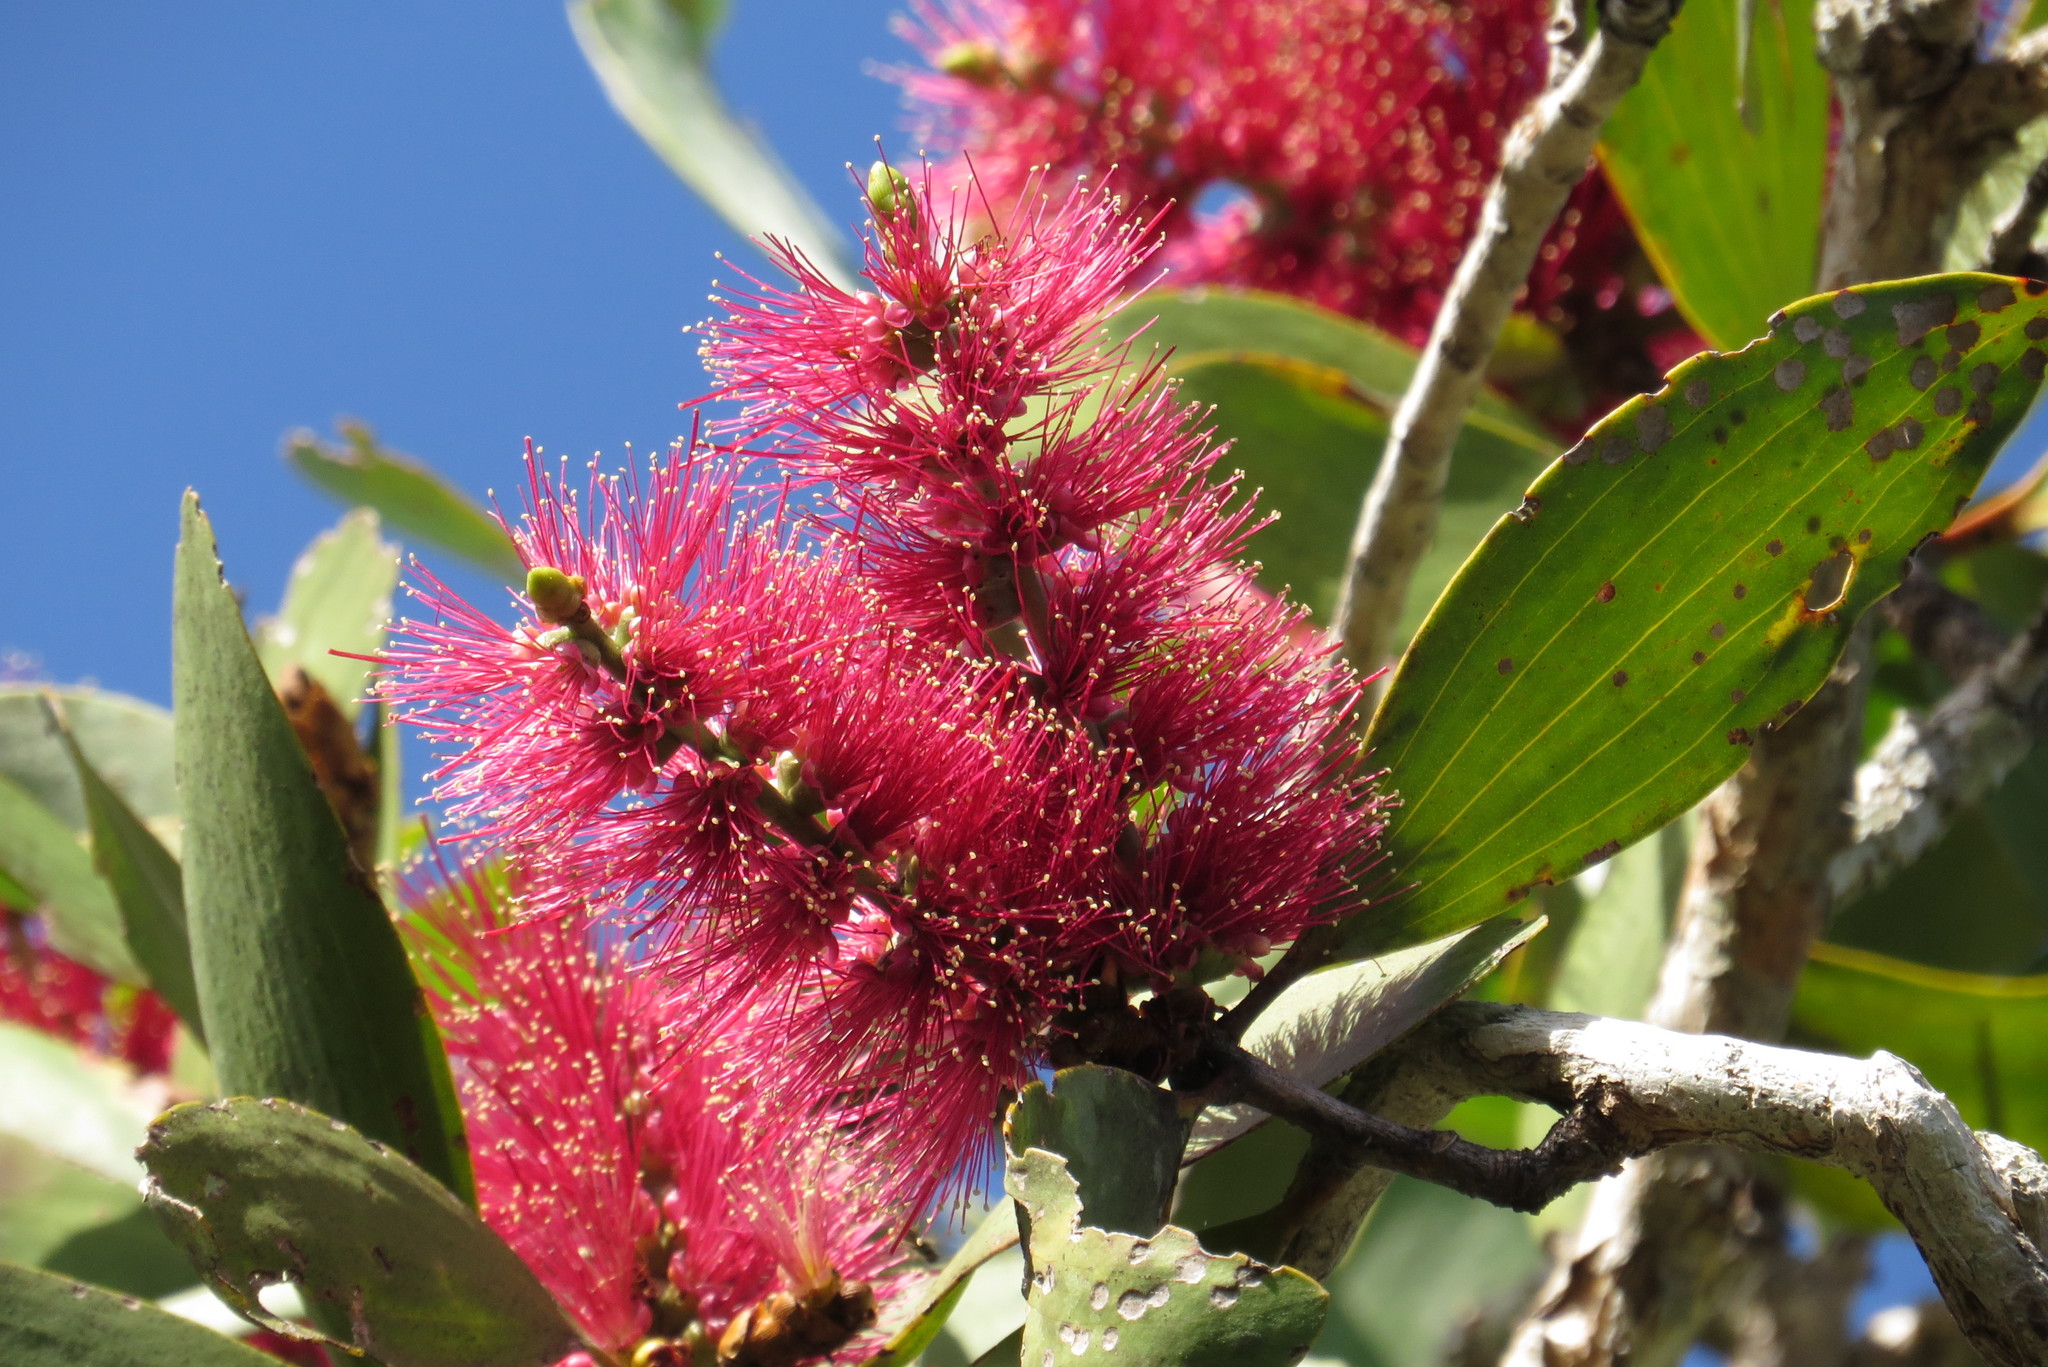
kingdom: Plantae
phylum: Tracheophyta
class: Magnoliopsida
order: Myrtales
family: Myrtaceae
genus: Melaleuca
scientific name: Melaleuca viridiflora
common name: Brown-leaved paperbark
